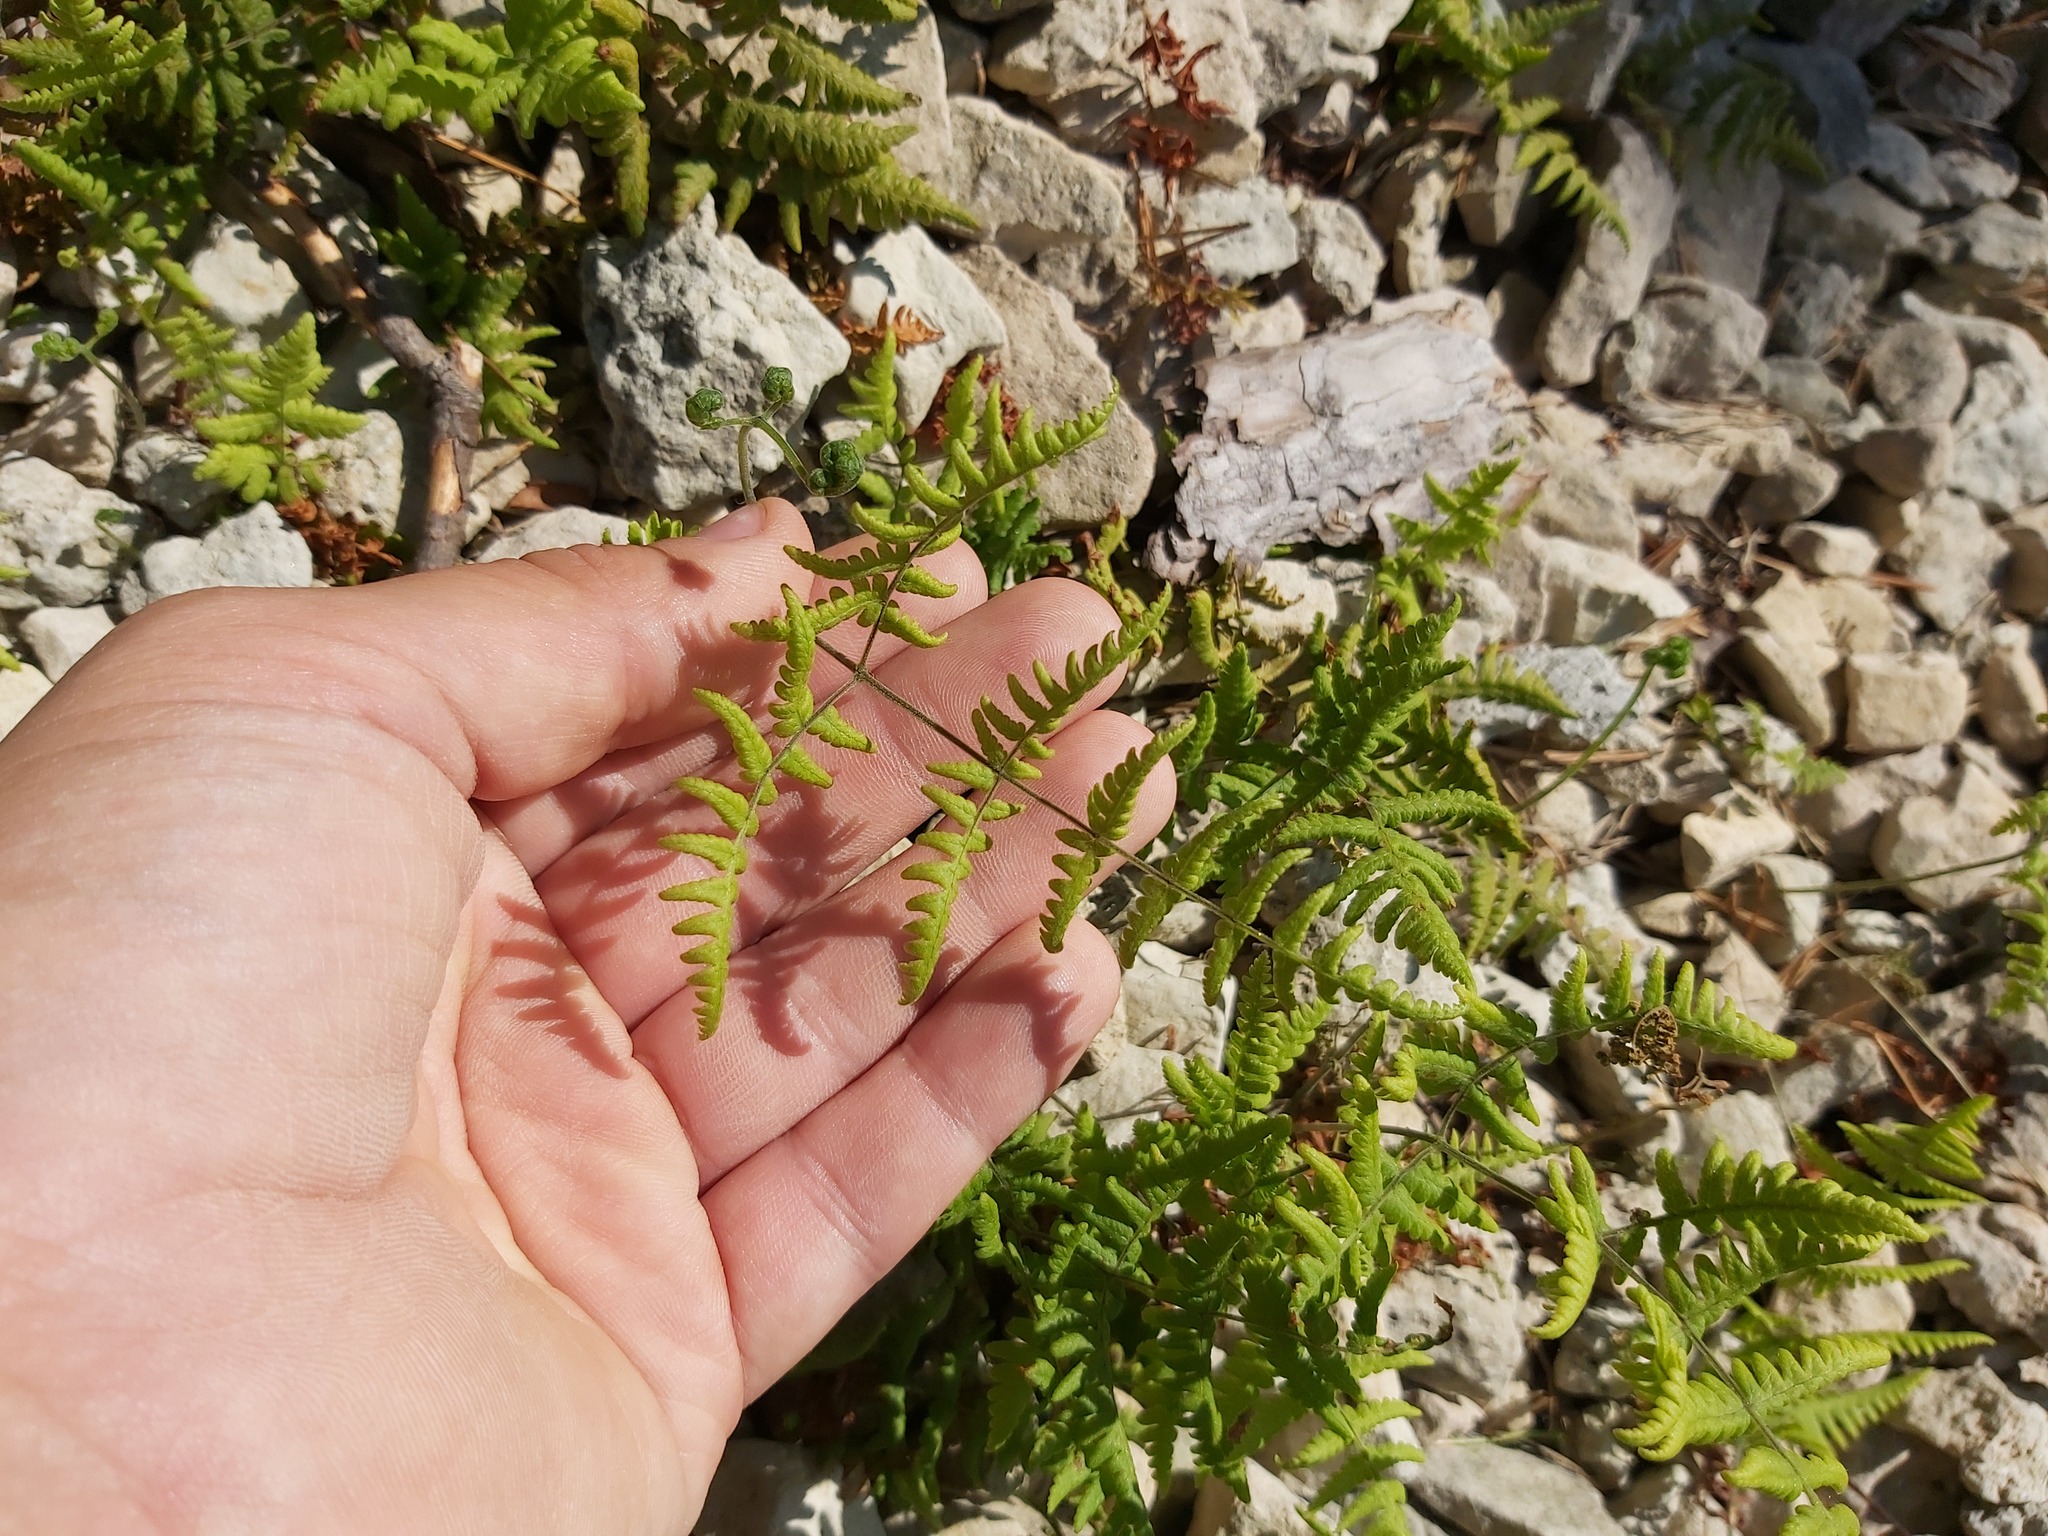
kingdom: Plantae
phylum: Tracheophyta
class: Polypodiopsida
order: Polypodiales
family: Cystopteridaceae
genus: Gymnocarpium
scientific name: Gymnocarpium robertianum
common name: Limestone fern
